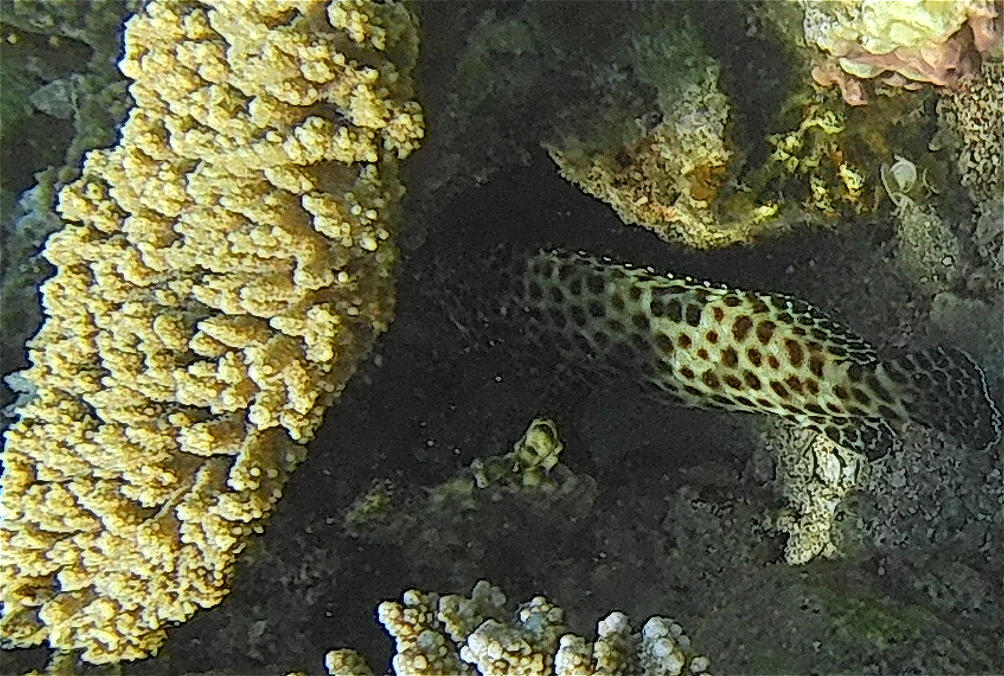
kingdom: Animalia
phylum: Chordata
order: Perciformes
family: Serranidae
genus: Epinephelus
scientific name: Epinephelus tauvina
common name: Greasy grouper
